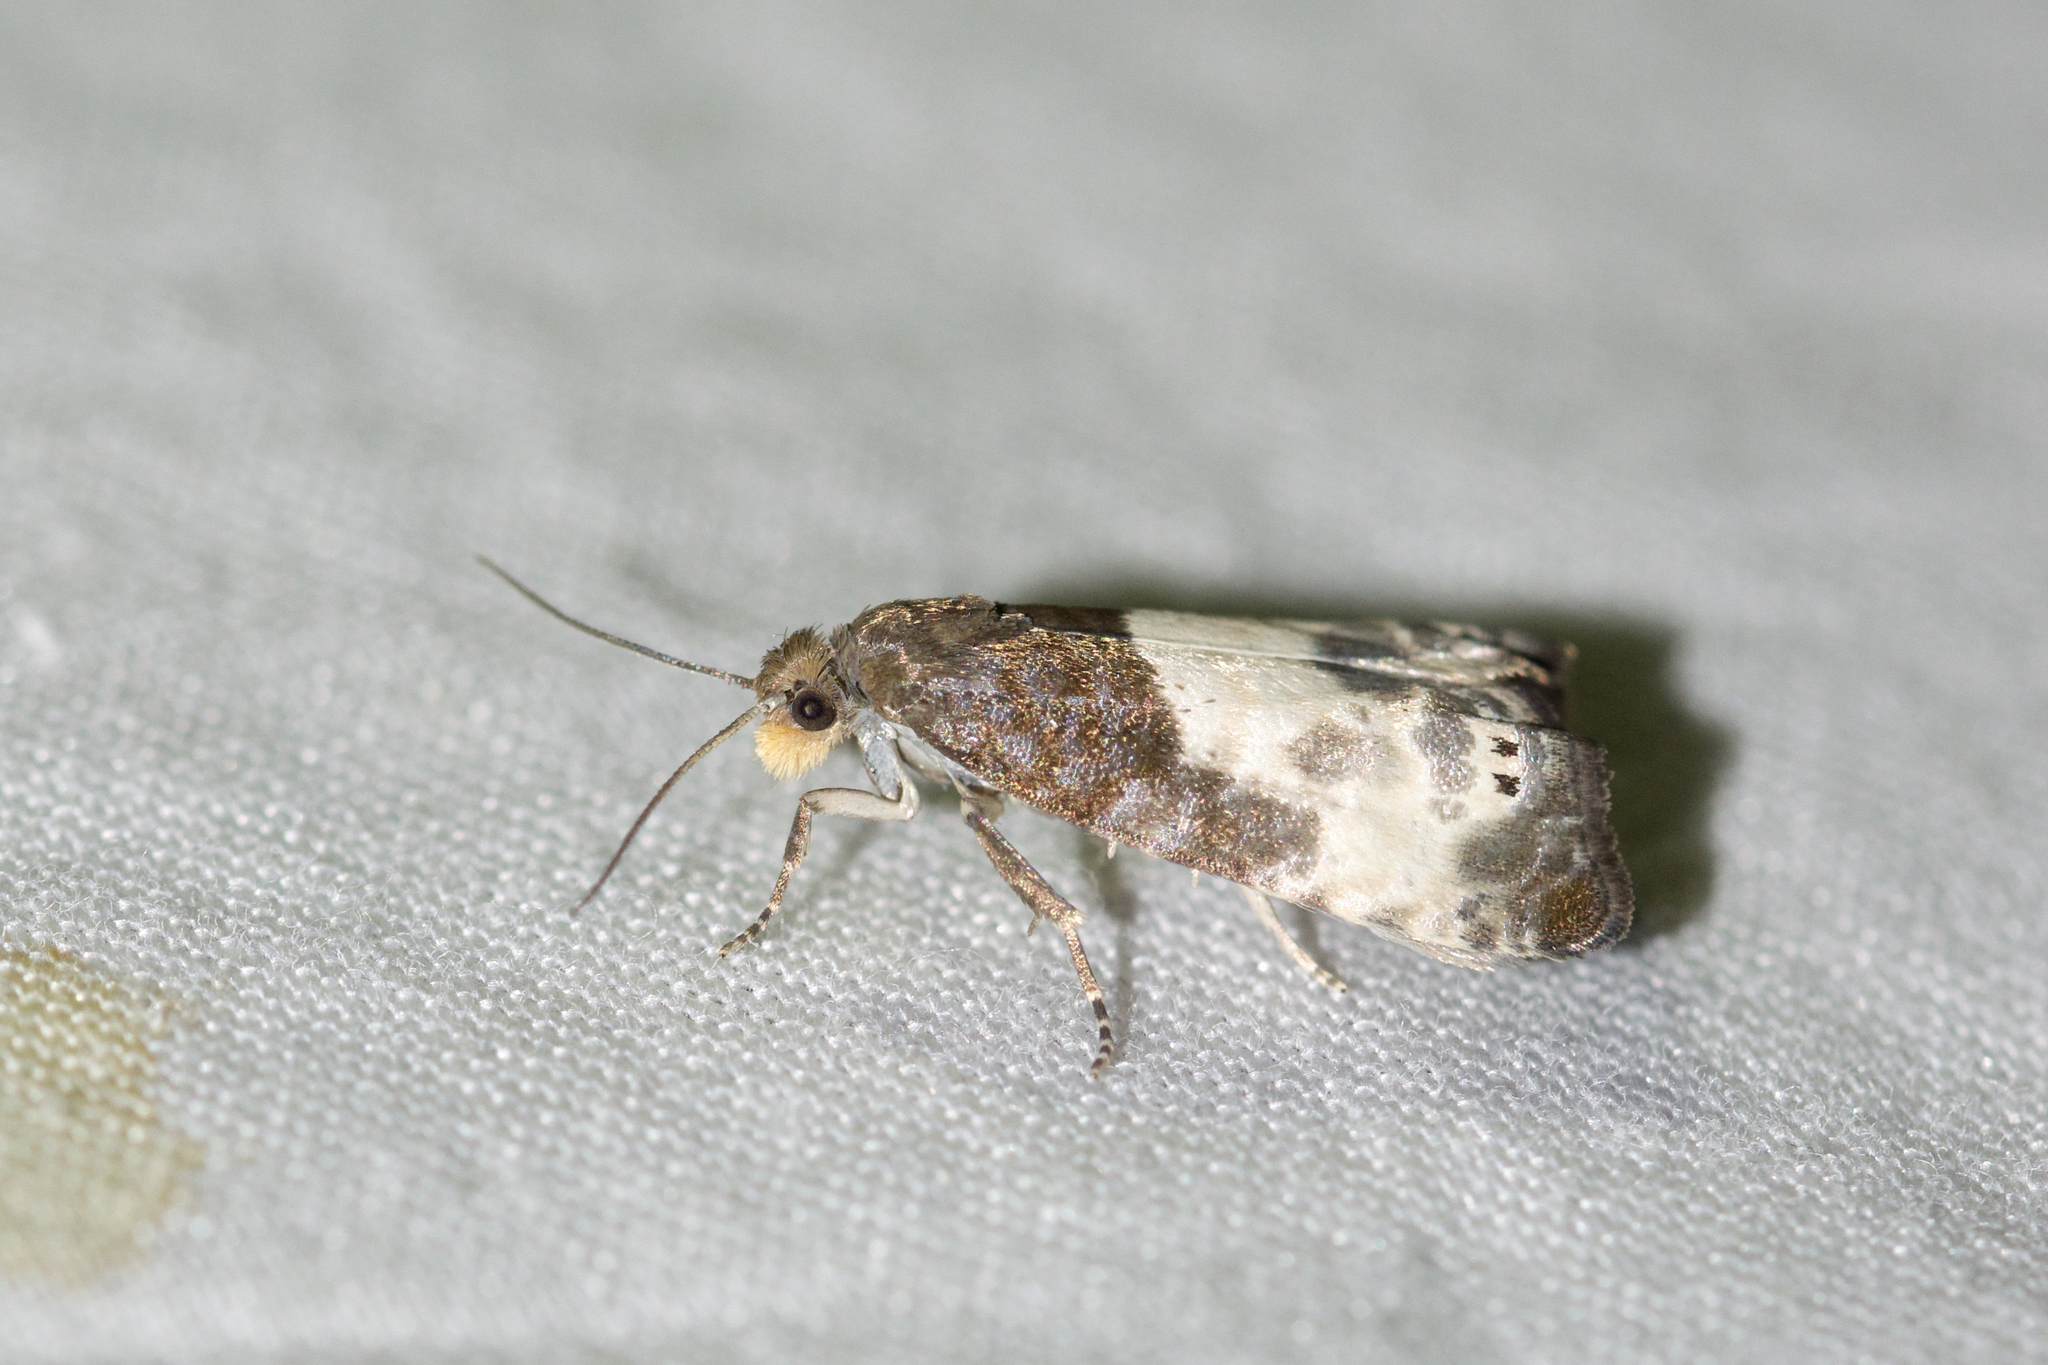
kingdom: Animalia
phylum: Arthropoda
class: Insecta
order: Lepidoptera
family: Tortricidae
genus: Notocelia
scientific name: Notocelia cynosbatella
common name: Yellow-faced bell moth
